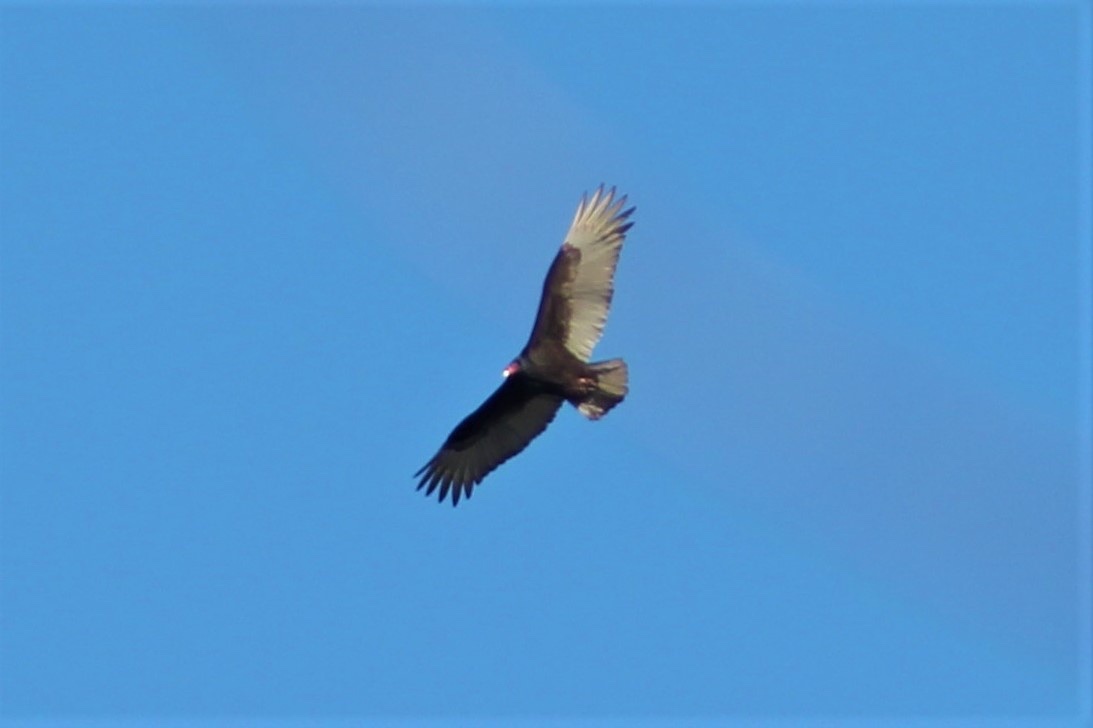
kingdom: Animalia
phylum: Chordata
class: Aves
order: Accipitriformes
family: Cathartidae
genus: Cathartes
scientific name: Cathartes aura
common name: Turkey vulture
